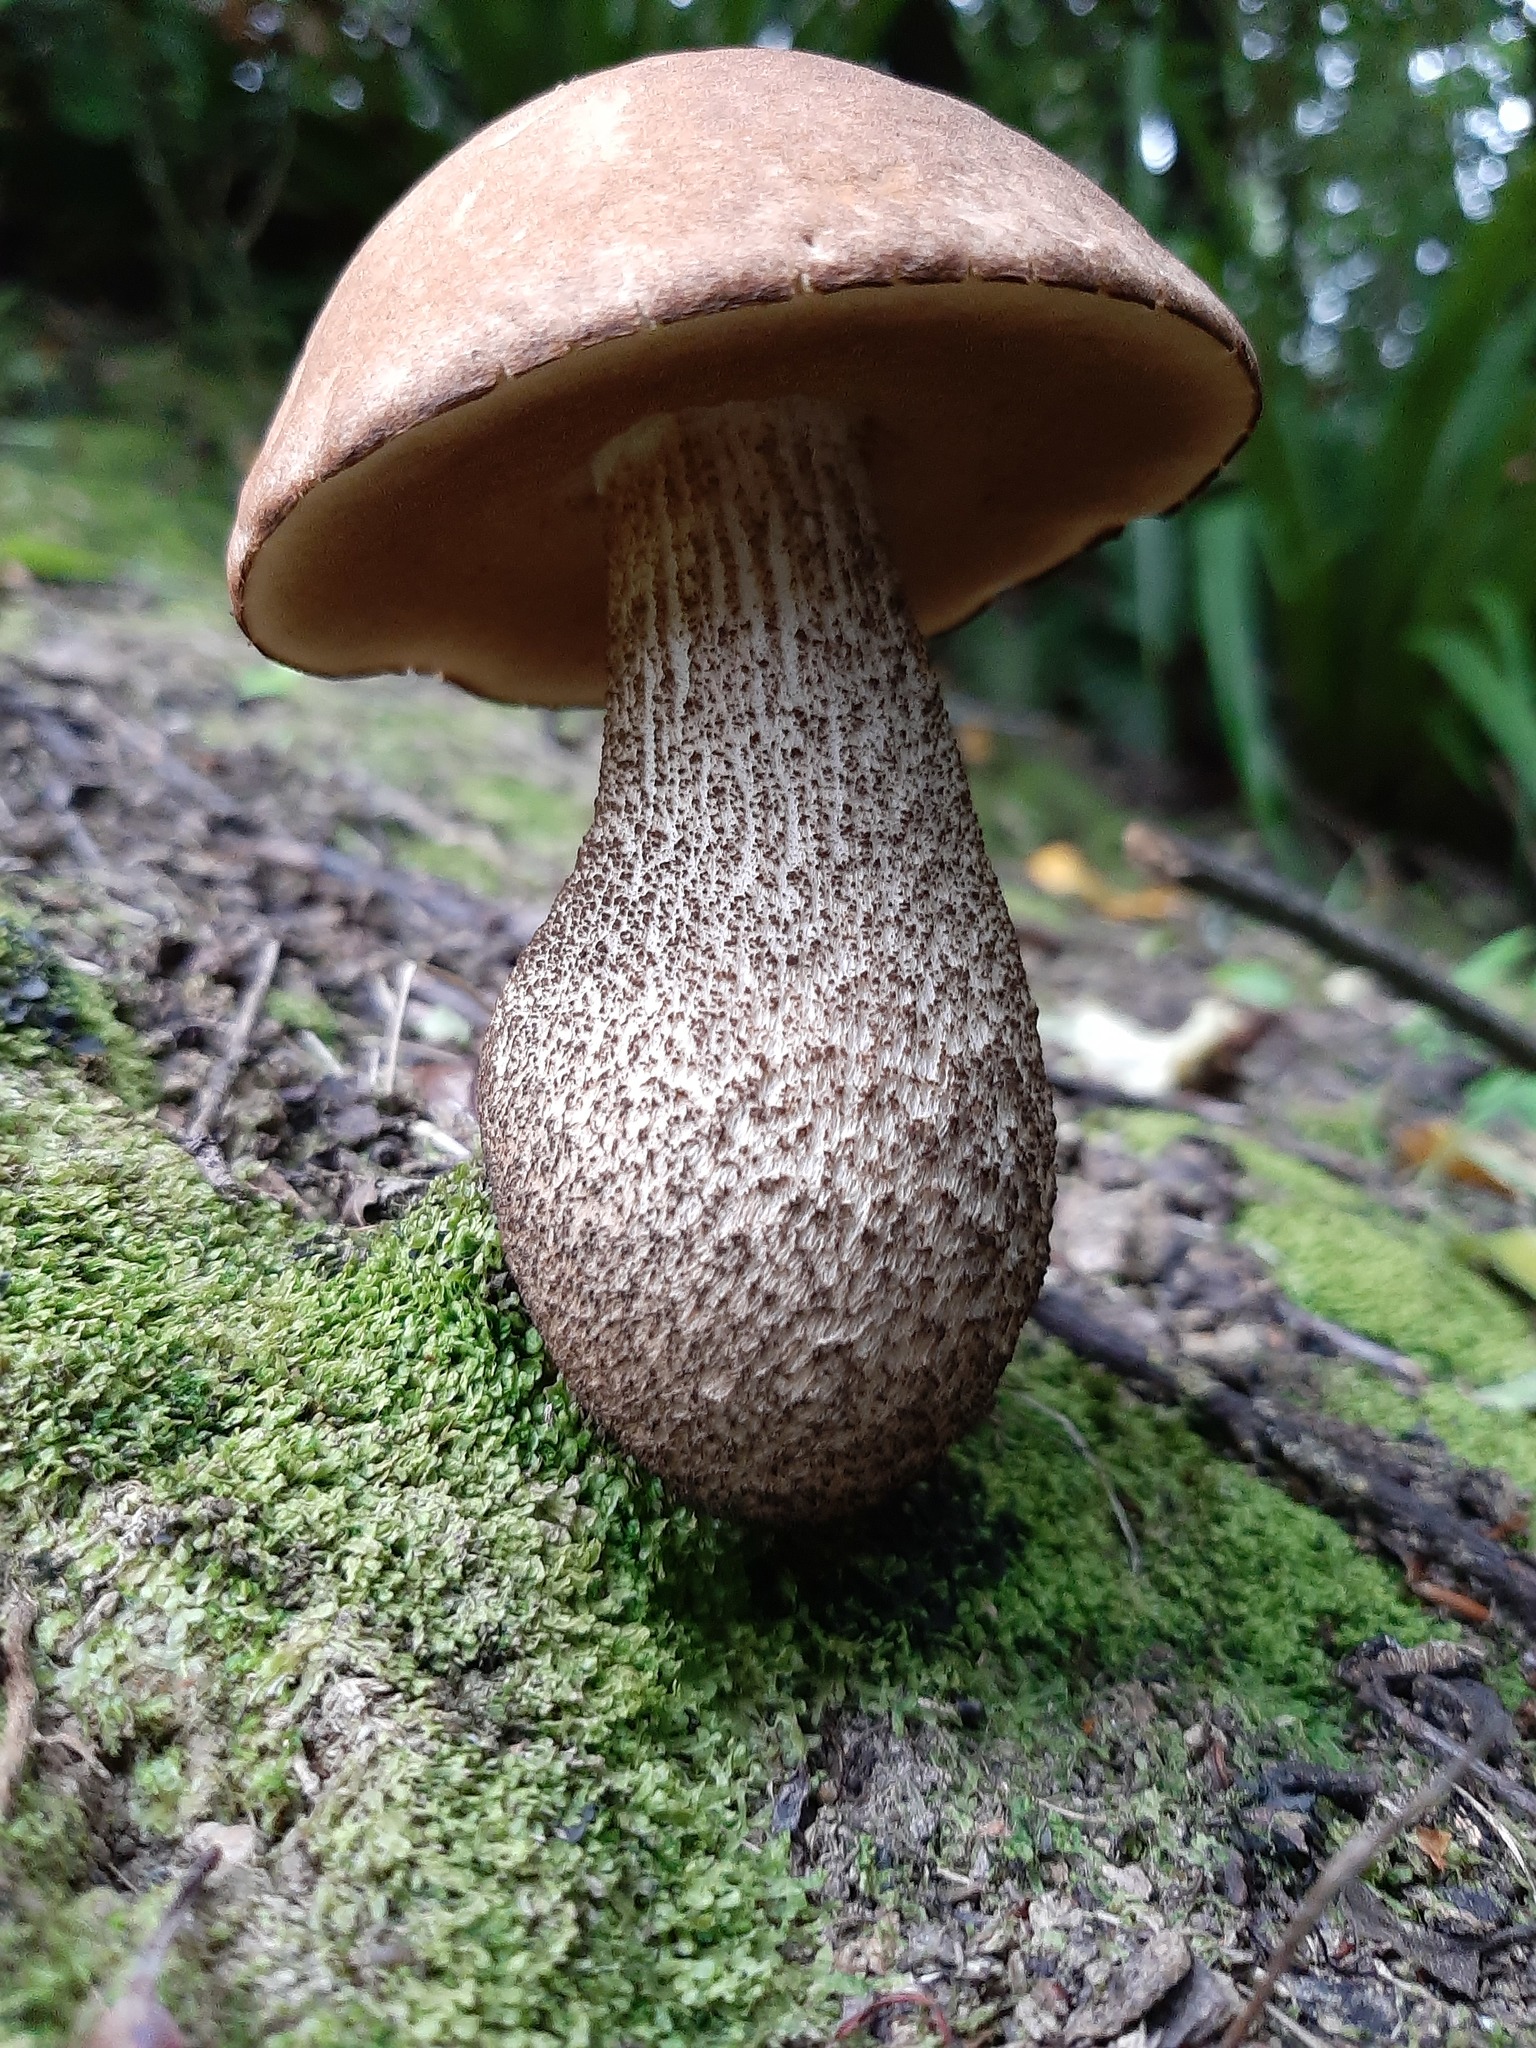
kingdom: Fungi
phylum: Basidiomycota
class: Agaricomycetes
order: Boletales
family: Boletaceae
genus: Leccinum
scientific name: Leccinum scabrum
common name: Blushing bolete
